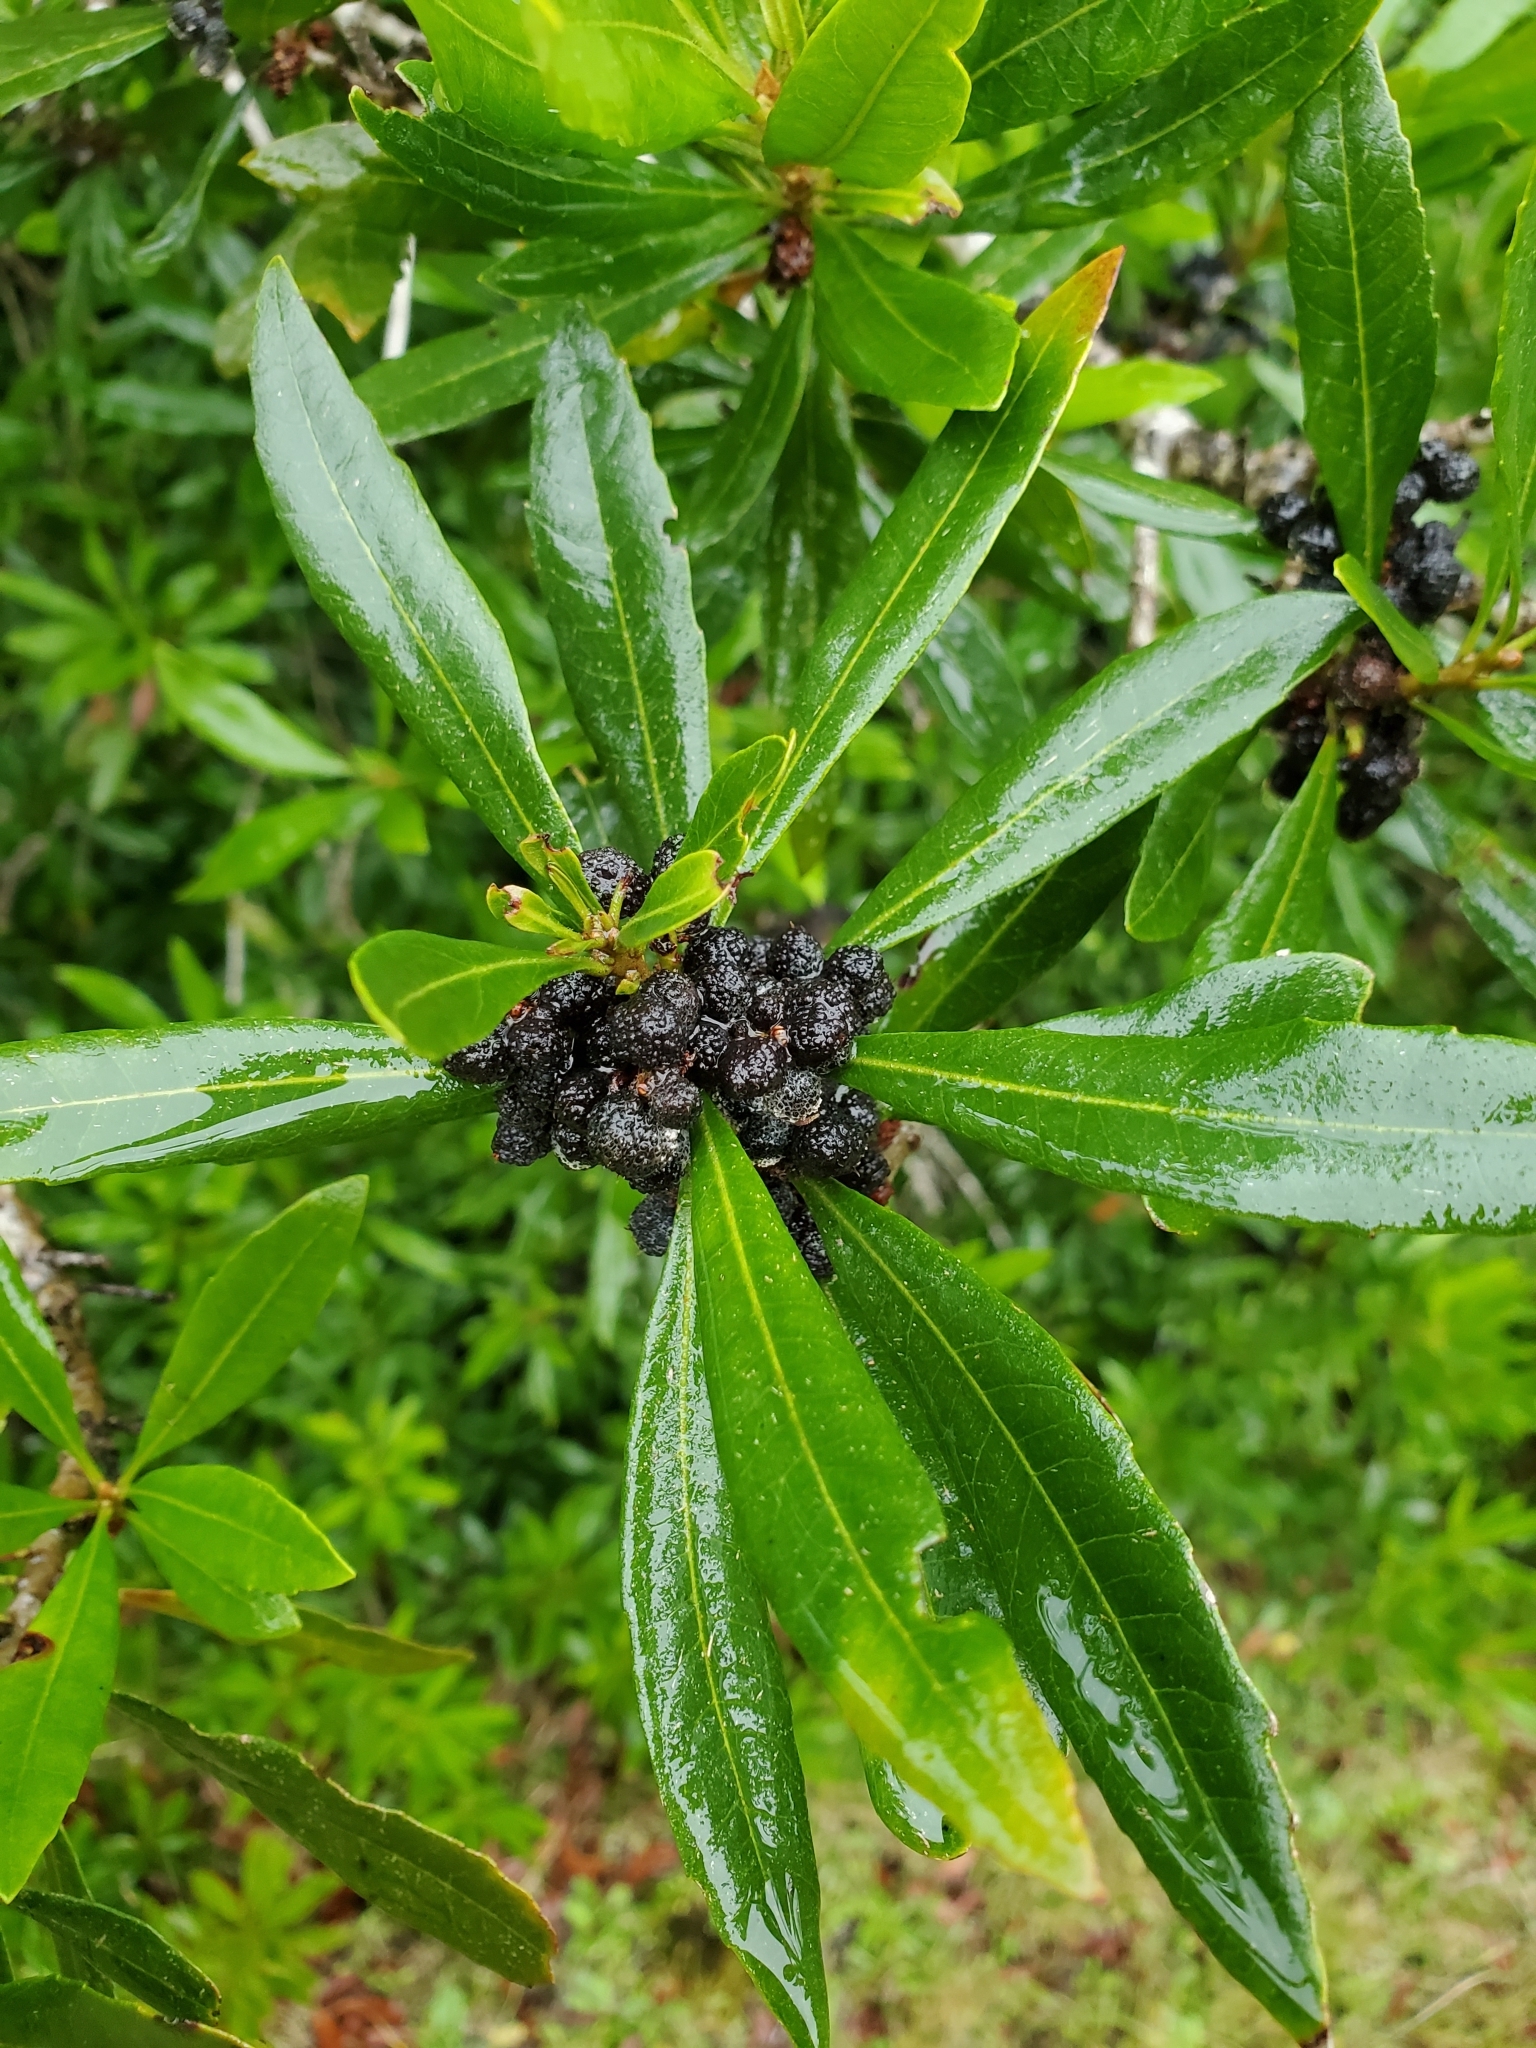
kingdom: Plantae
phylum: Tracheophyta
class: Magnoliopsida
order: Fagales
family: Myricaceae
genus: Morella
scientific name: Morella californica
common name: California wax-myrtle
